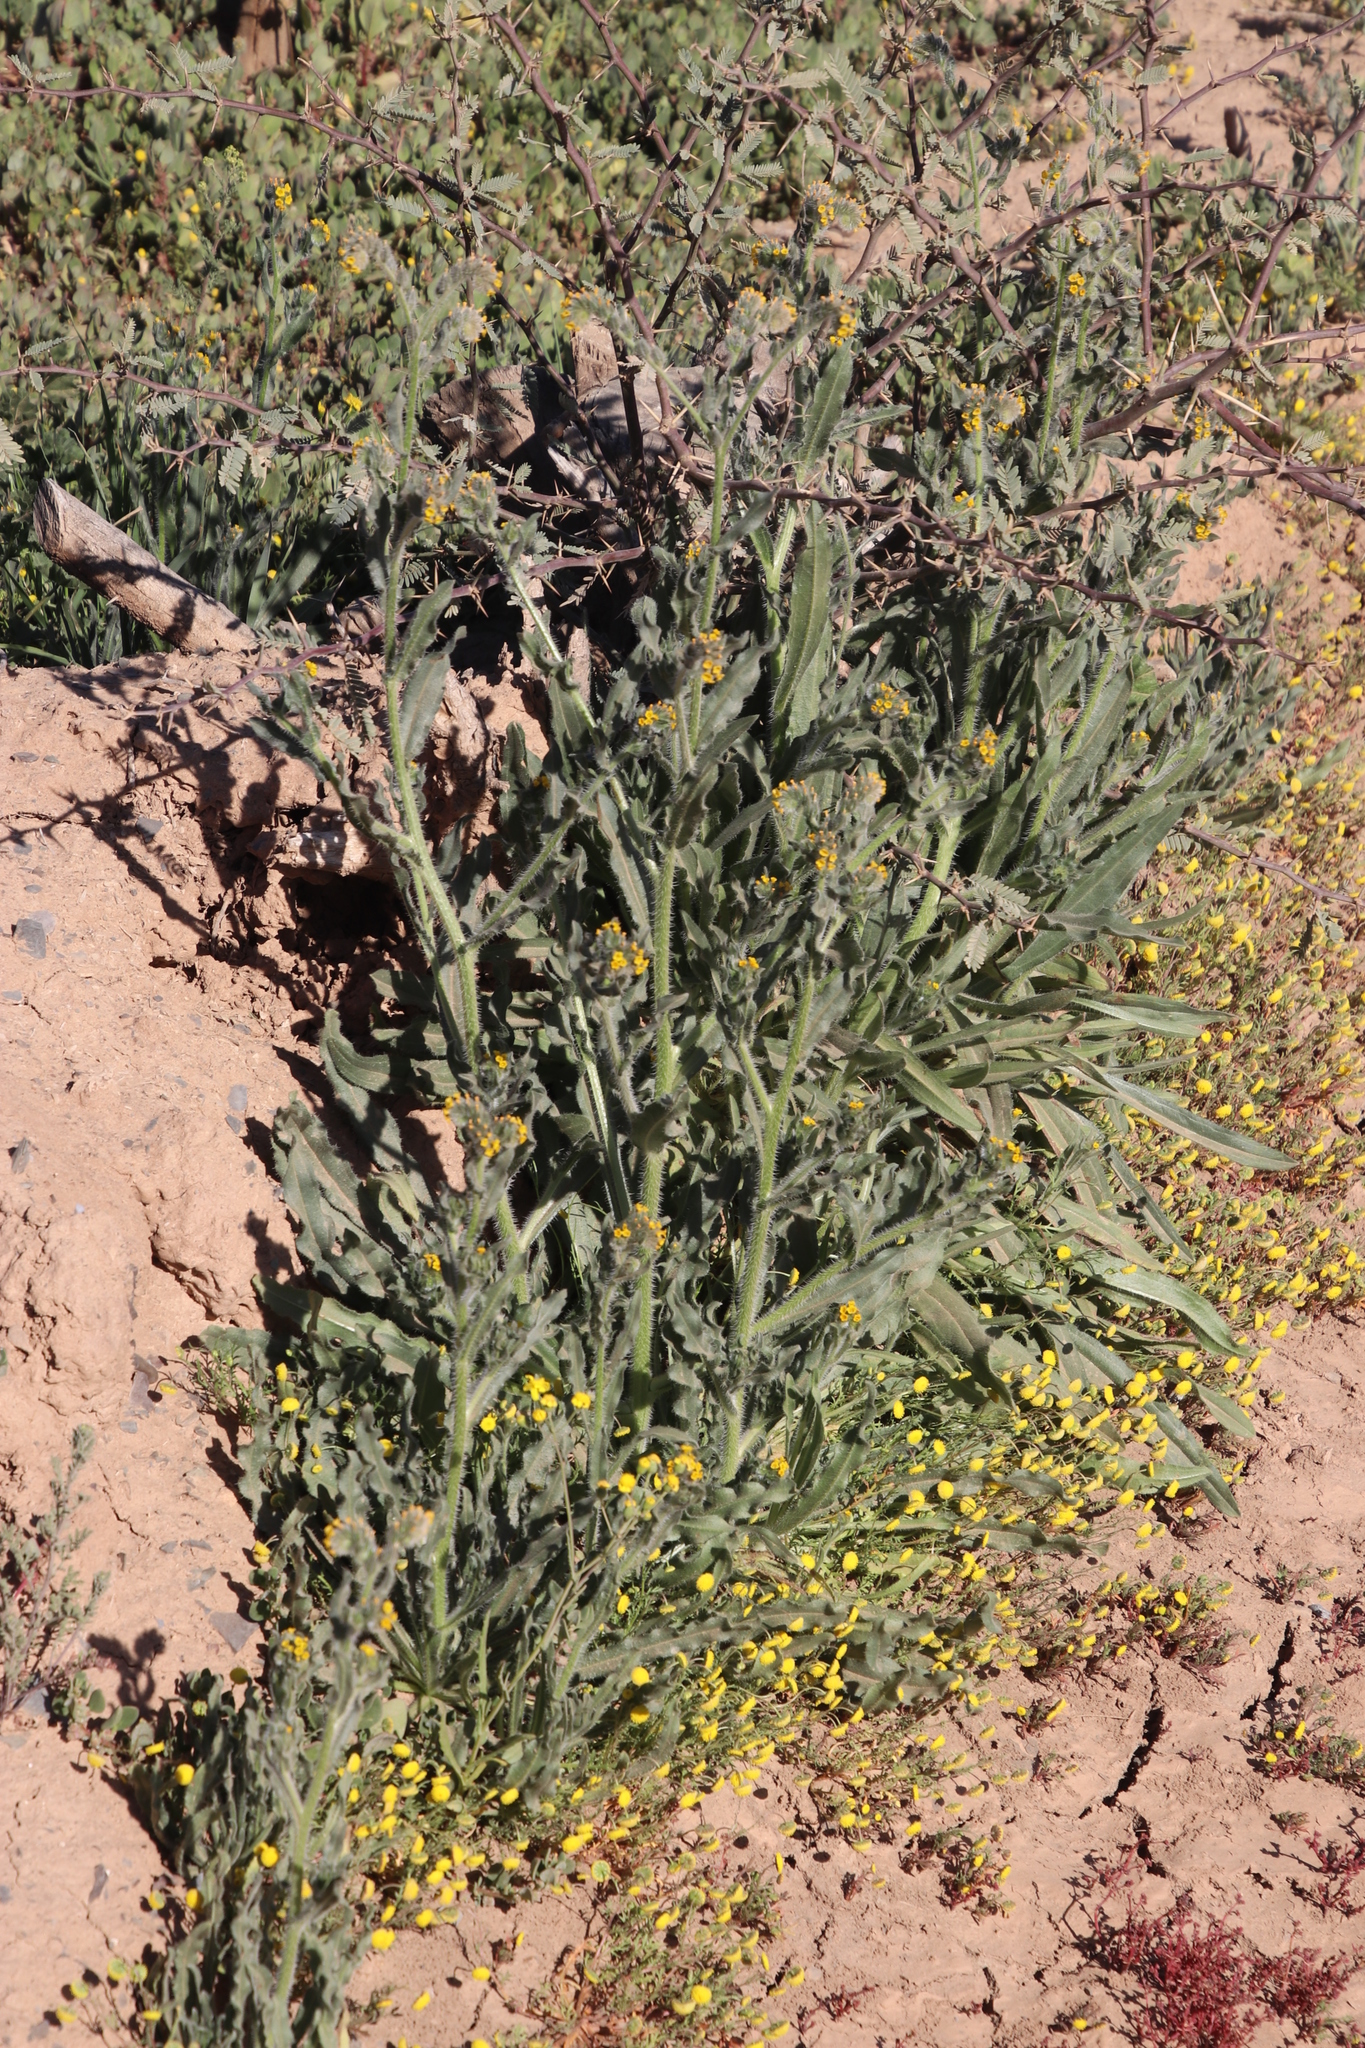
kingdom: Plantae
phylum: Tracheophyta
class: Magnoliopsida
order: Boraginales
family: Boraginaceae
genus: Amsinckia
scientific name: Amsinckia menziesii
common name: Menzies' fiddleneck
